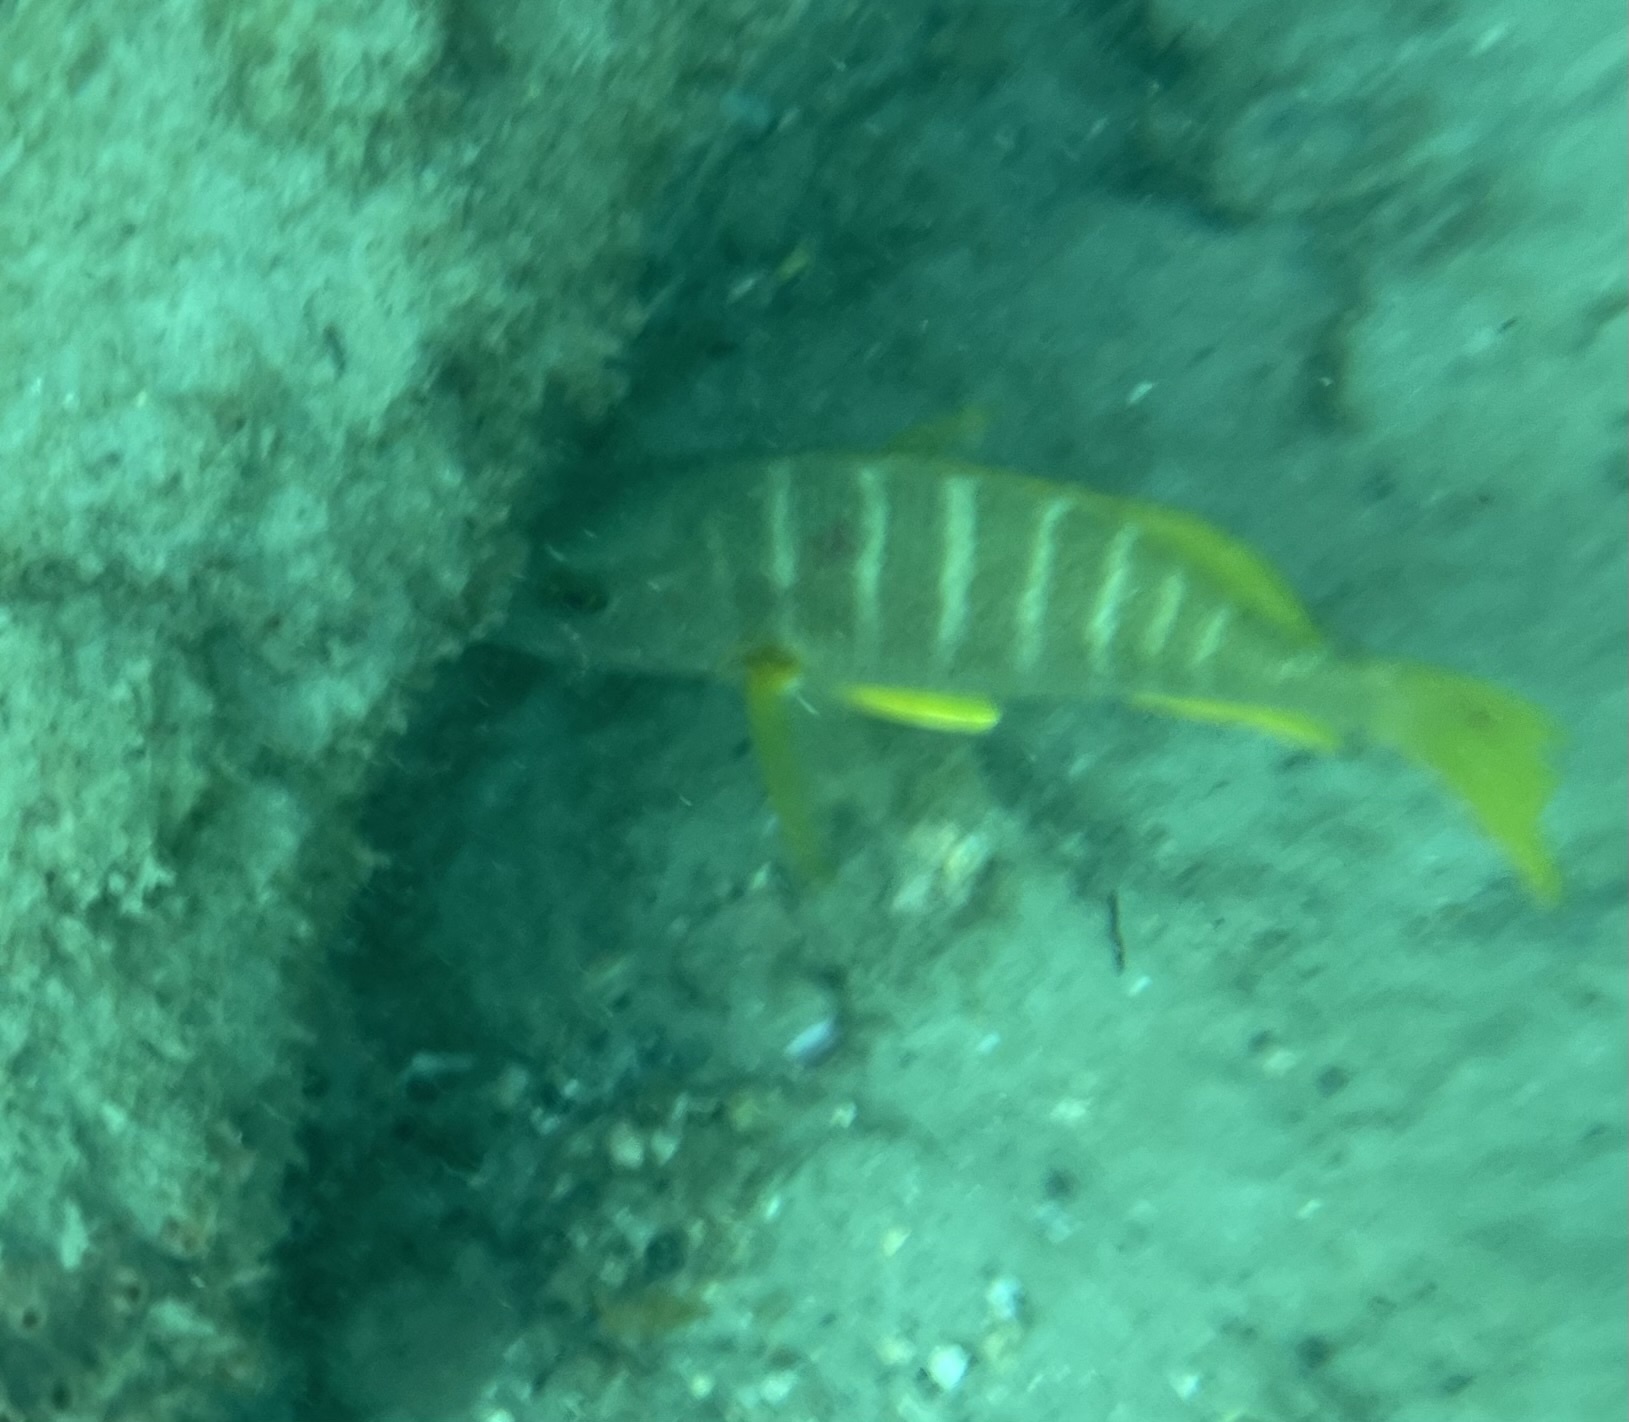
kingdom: Animalia
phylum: Chordata
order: Perciformes
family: Lutjanidae
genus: Lutjanus
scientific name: Lutjanus apodus
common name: Schoolmaster
